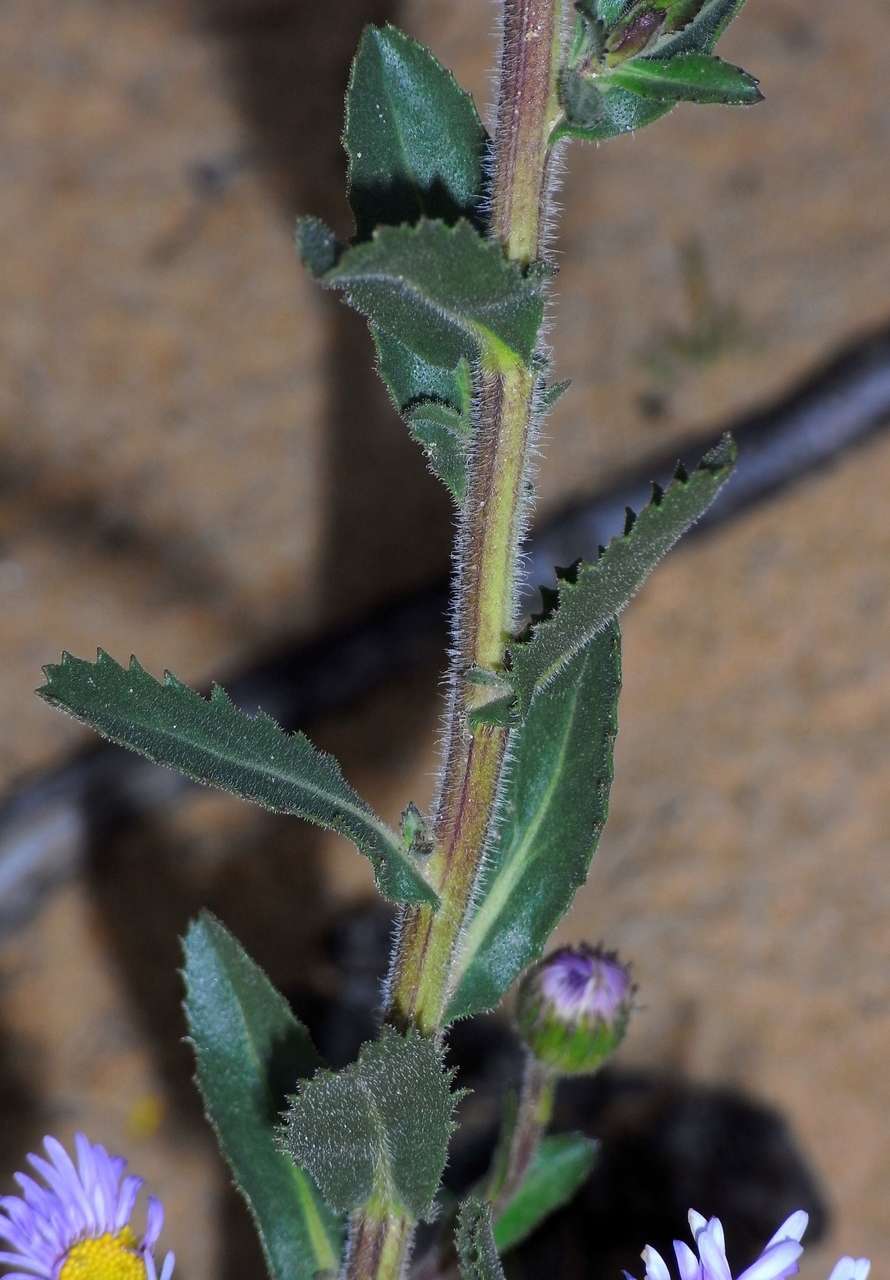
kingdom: Plantae
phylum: Tracheophyta
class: Magnoliopsida
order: Asterales
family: Asteraceae
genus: Muellerolaria
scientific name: Muellerolaria rudis
